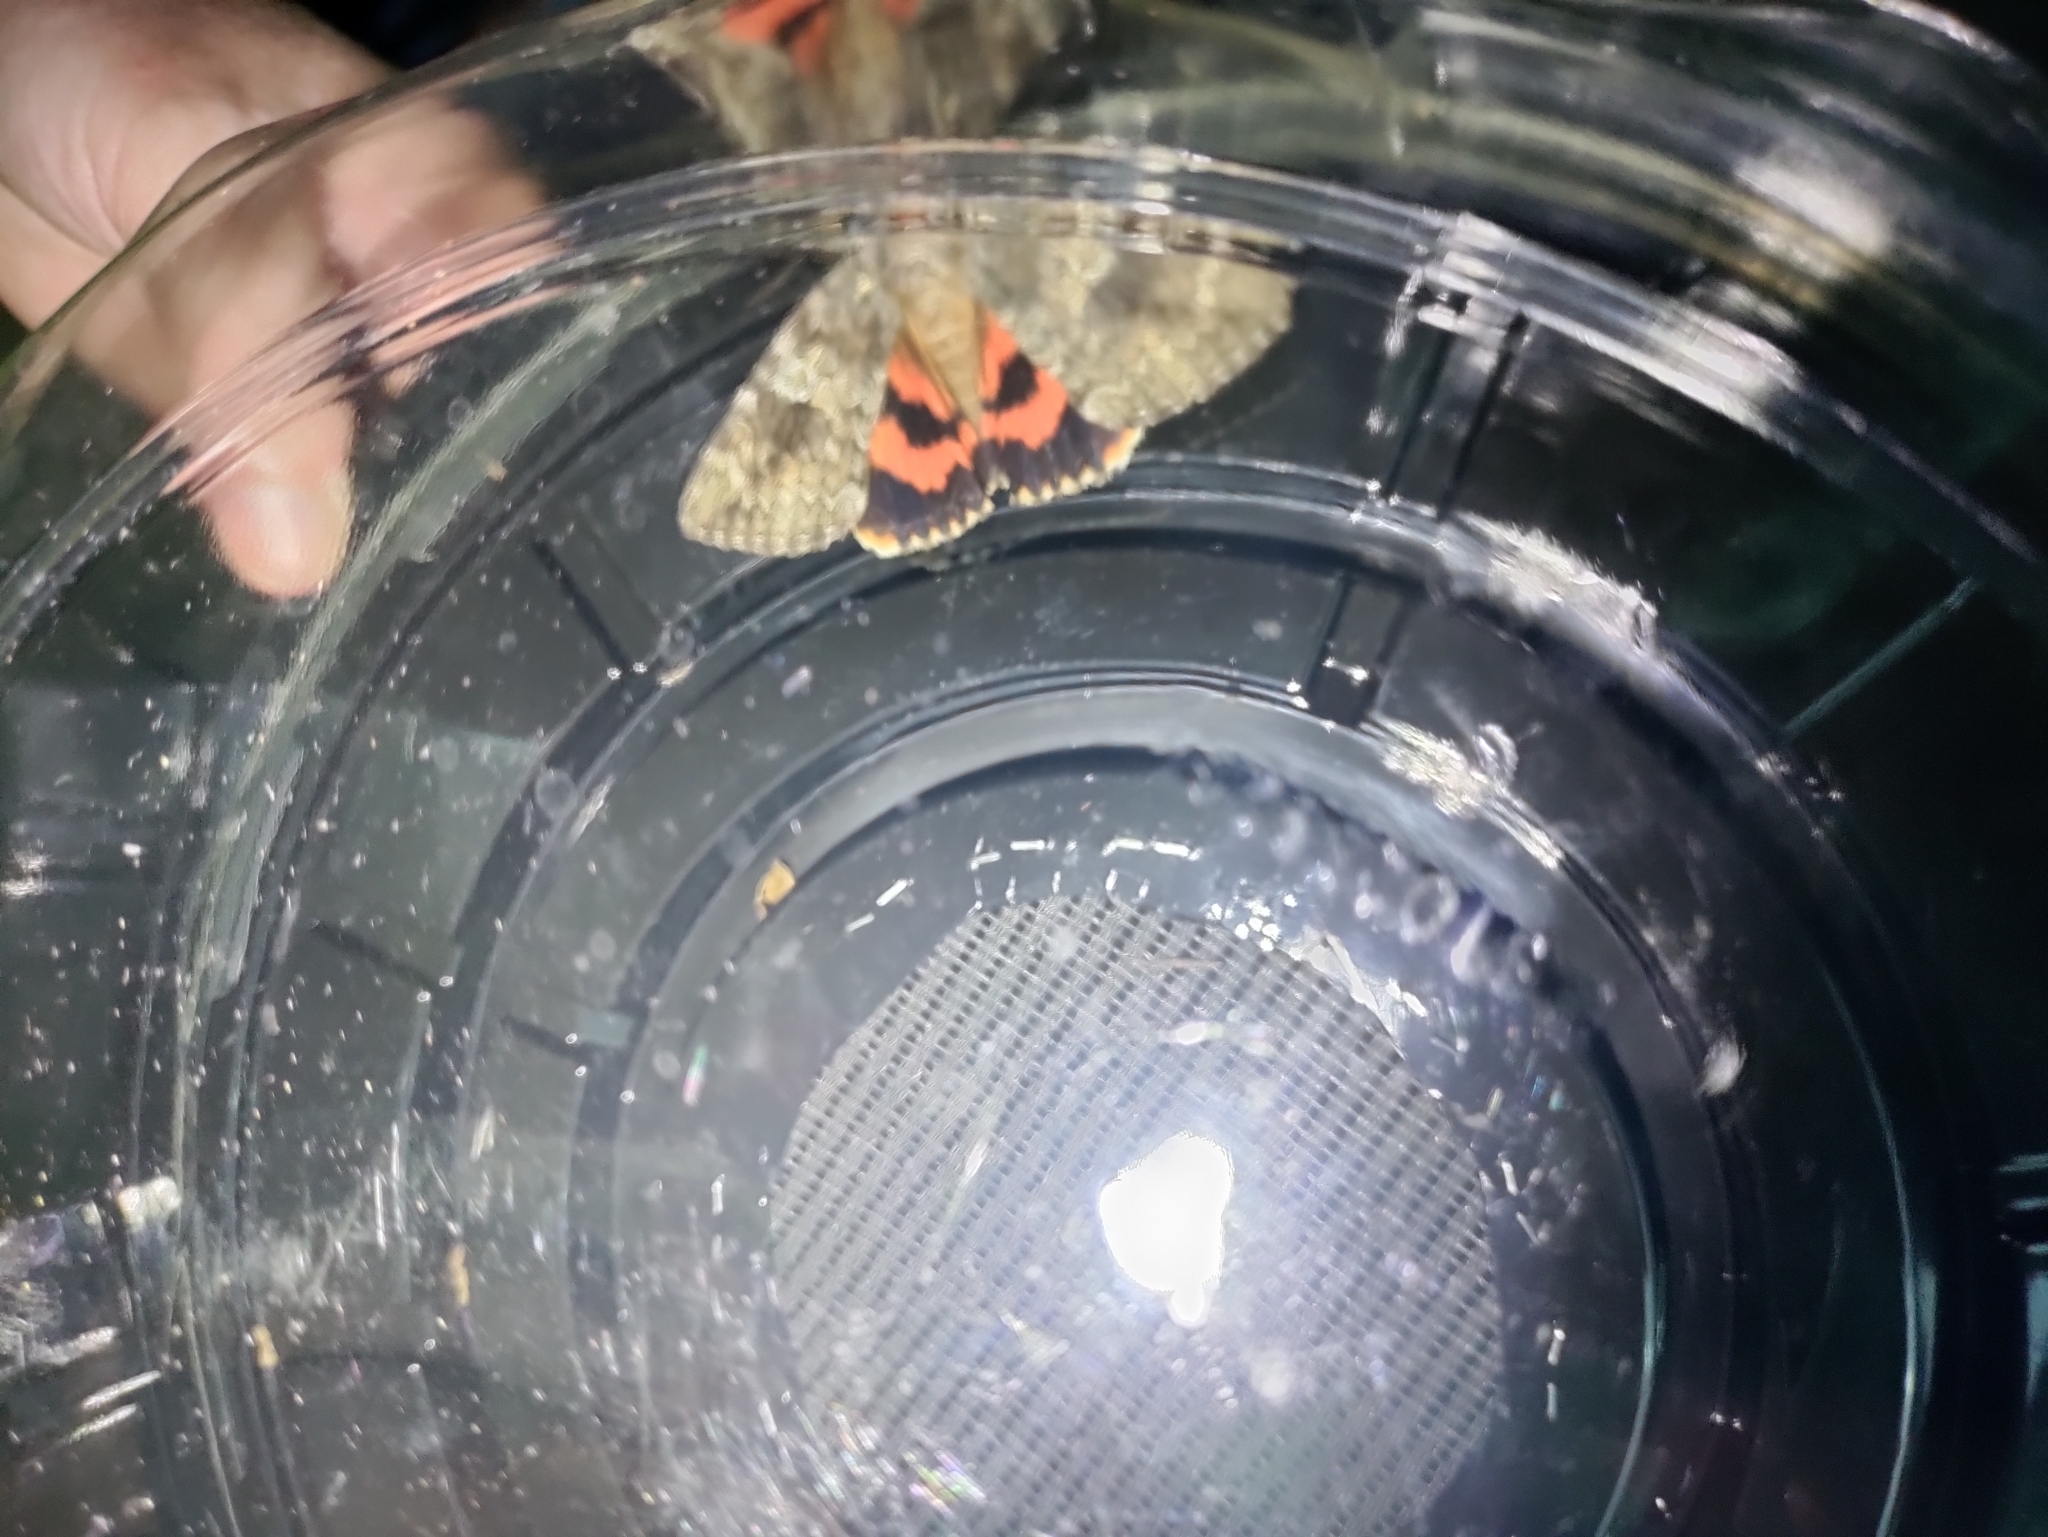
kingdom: Animalia
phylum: Arthropoda
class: Insecta
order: Lepidoptera
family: Erebidae
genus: Catocala
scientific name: Catocala ilia
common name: Ilia underwing
